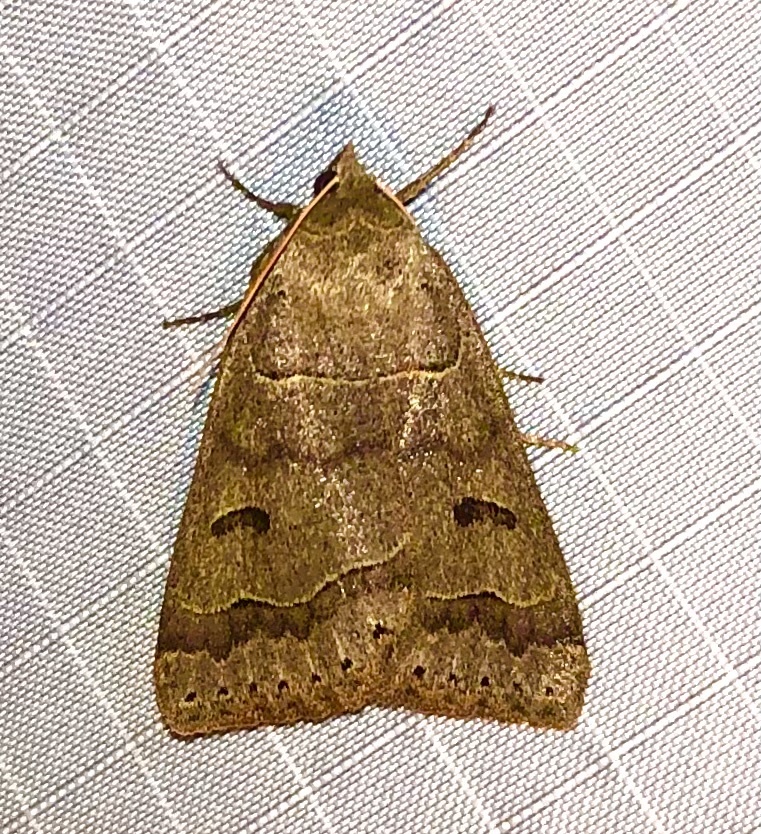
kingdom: Animalia
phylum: Arthropoda
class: Insecta
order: Lepidoptera
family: Erebidae
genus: Phoberia
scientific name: Phoberia atomaris
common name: Common oak moth
